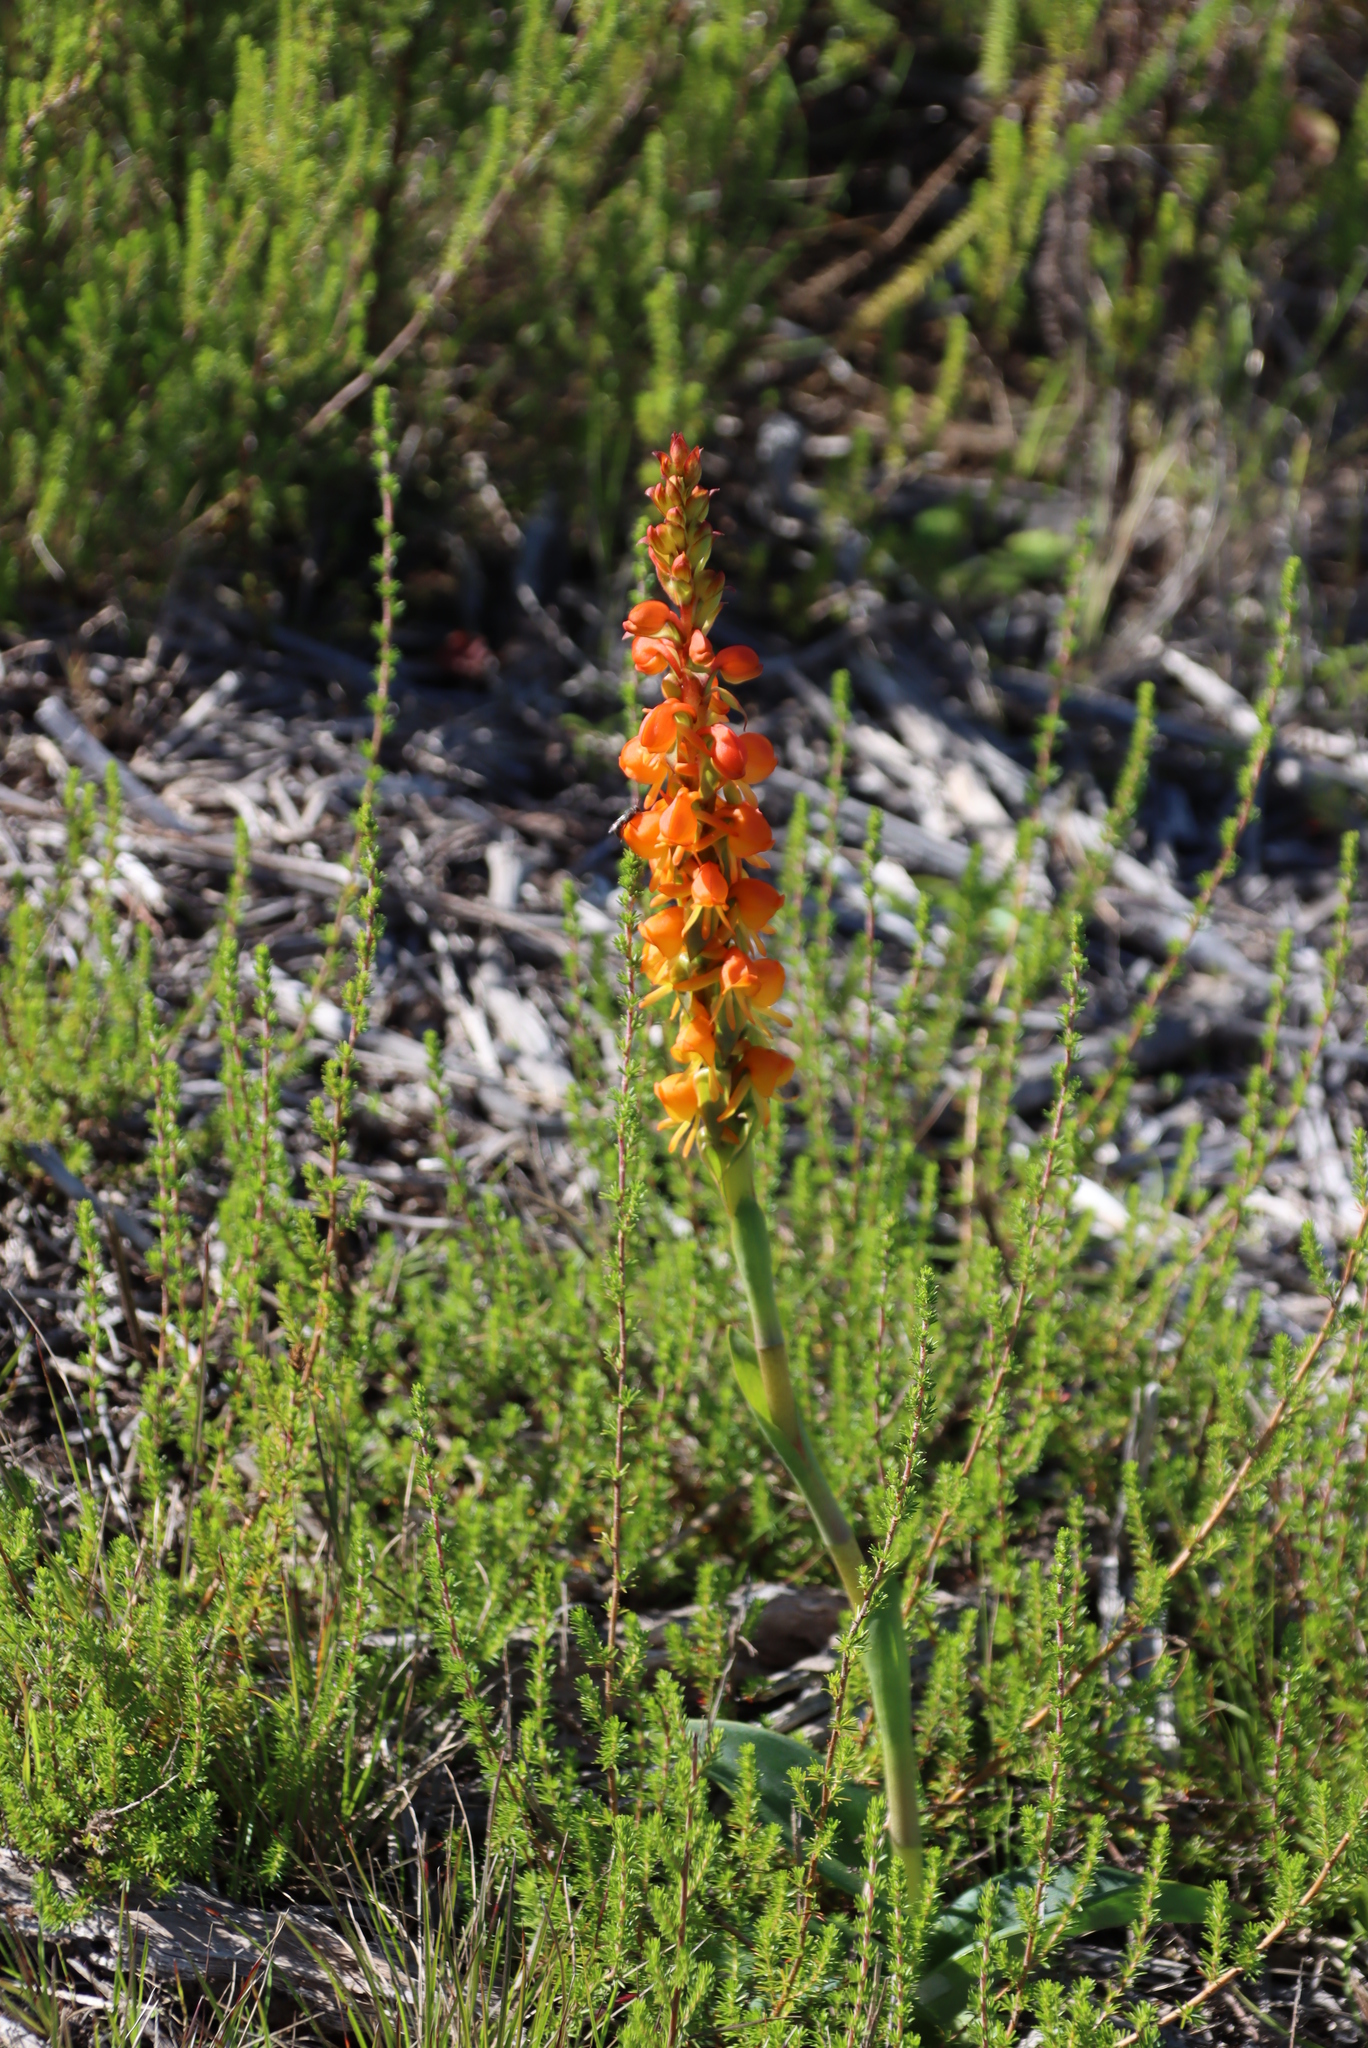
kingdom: Plantae
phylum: Tracheophyta
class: Liliopsida
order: Asparagales
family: Orchidaceae
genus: Satyrium
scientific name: Satyrium coriifolium
